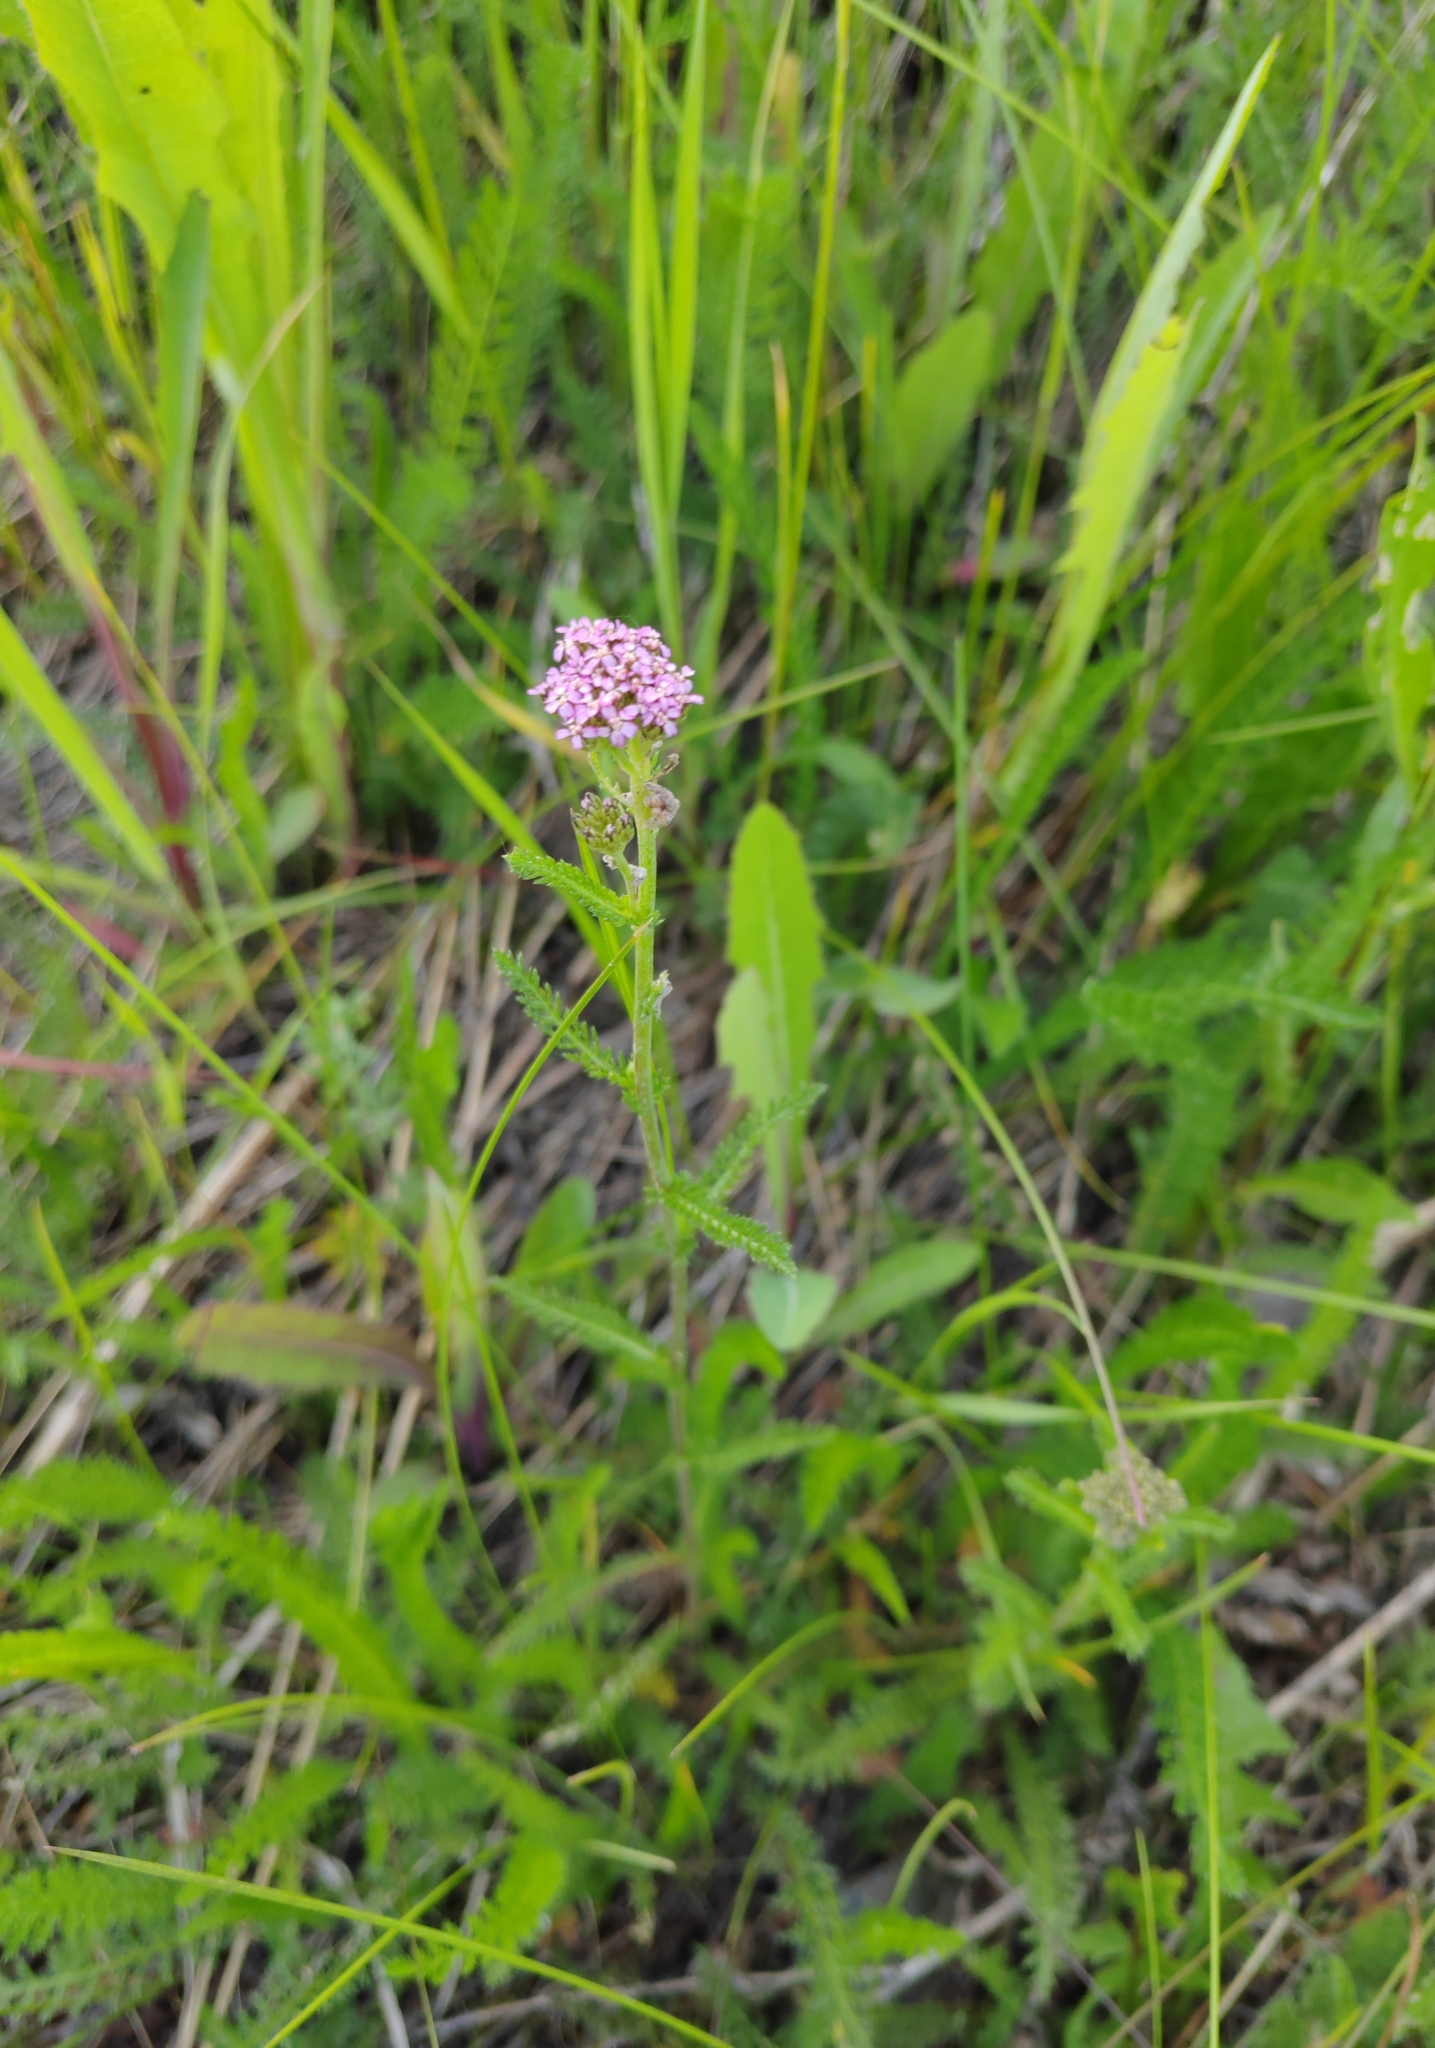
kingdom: Plantae
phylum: Tracheophyta
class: Magnoliopsida
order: Asterales
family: Asteraceae
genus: Achillea
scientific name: Achillea asiatica
